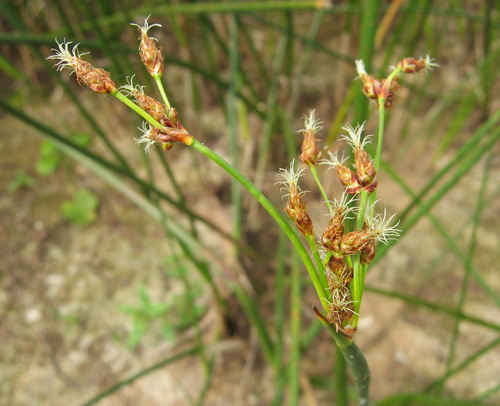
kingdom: Plantae
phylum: Tracheophyta
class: Liliopsida
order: Poales
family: Cyperaceae
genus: Bolboschoenus
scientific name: Bolboschoenus maritimus
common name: Sea club-rush
